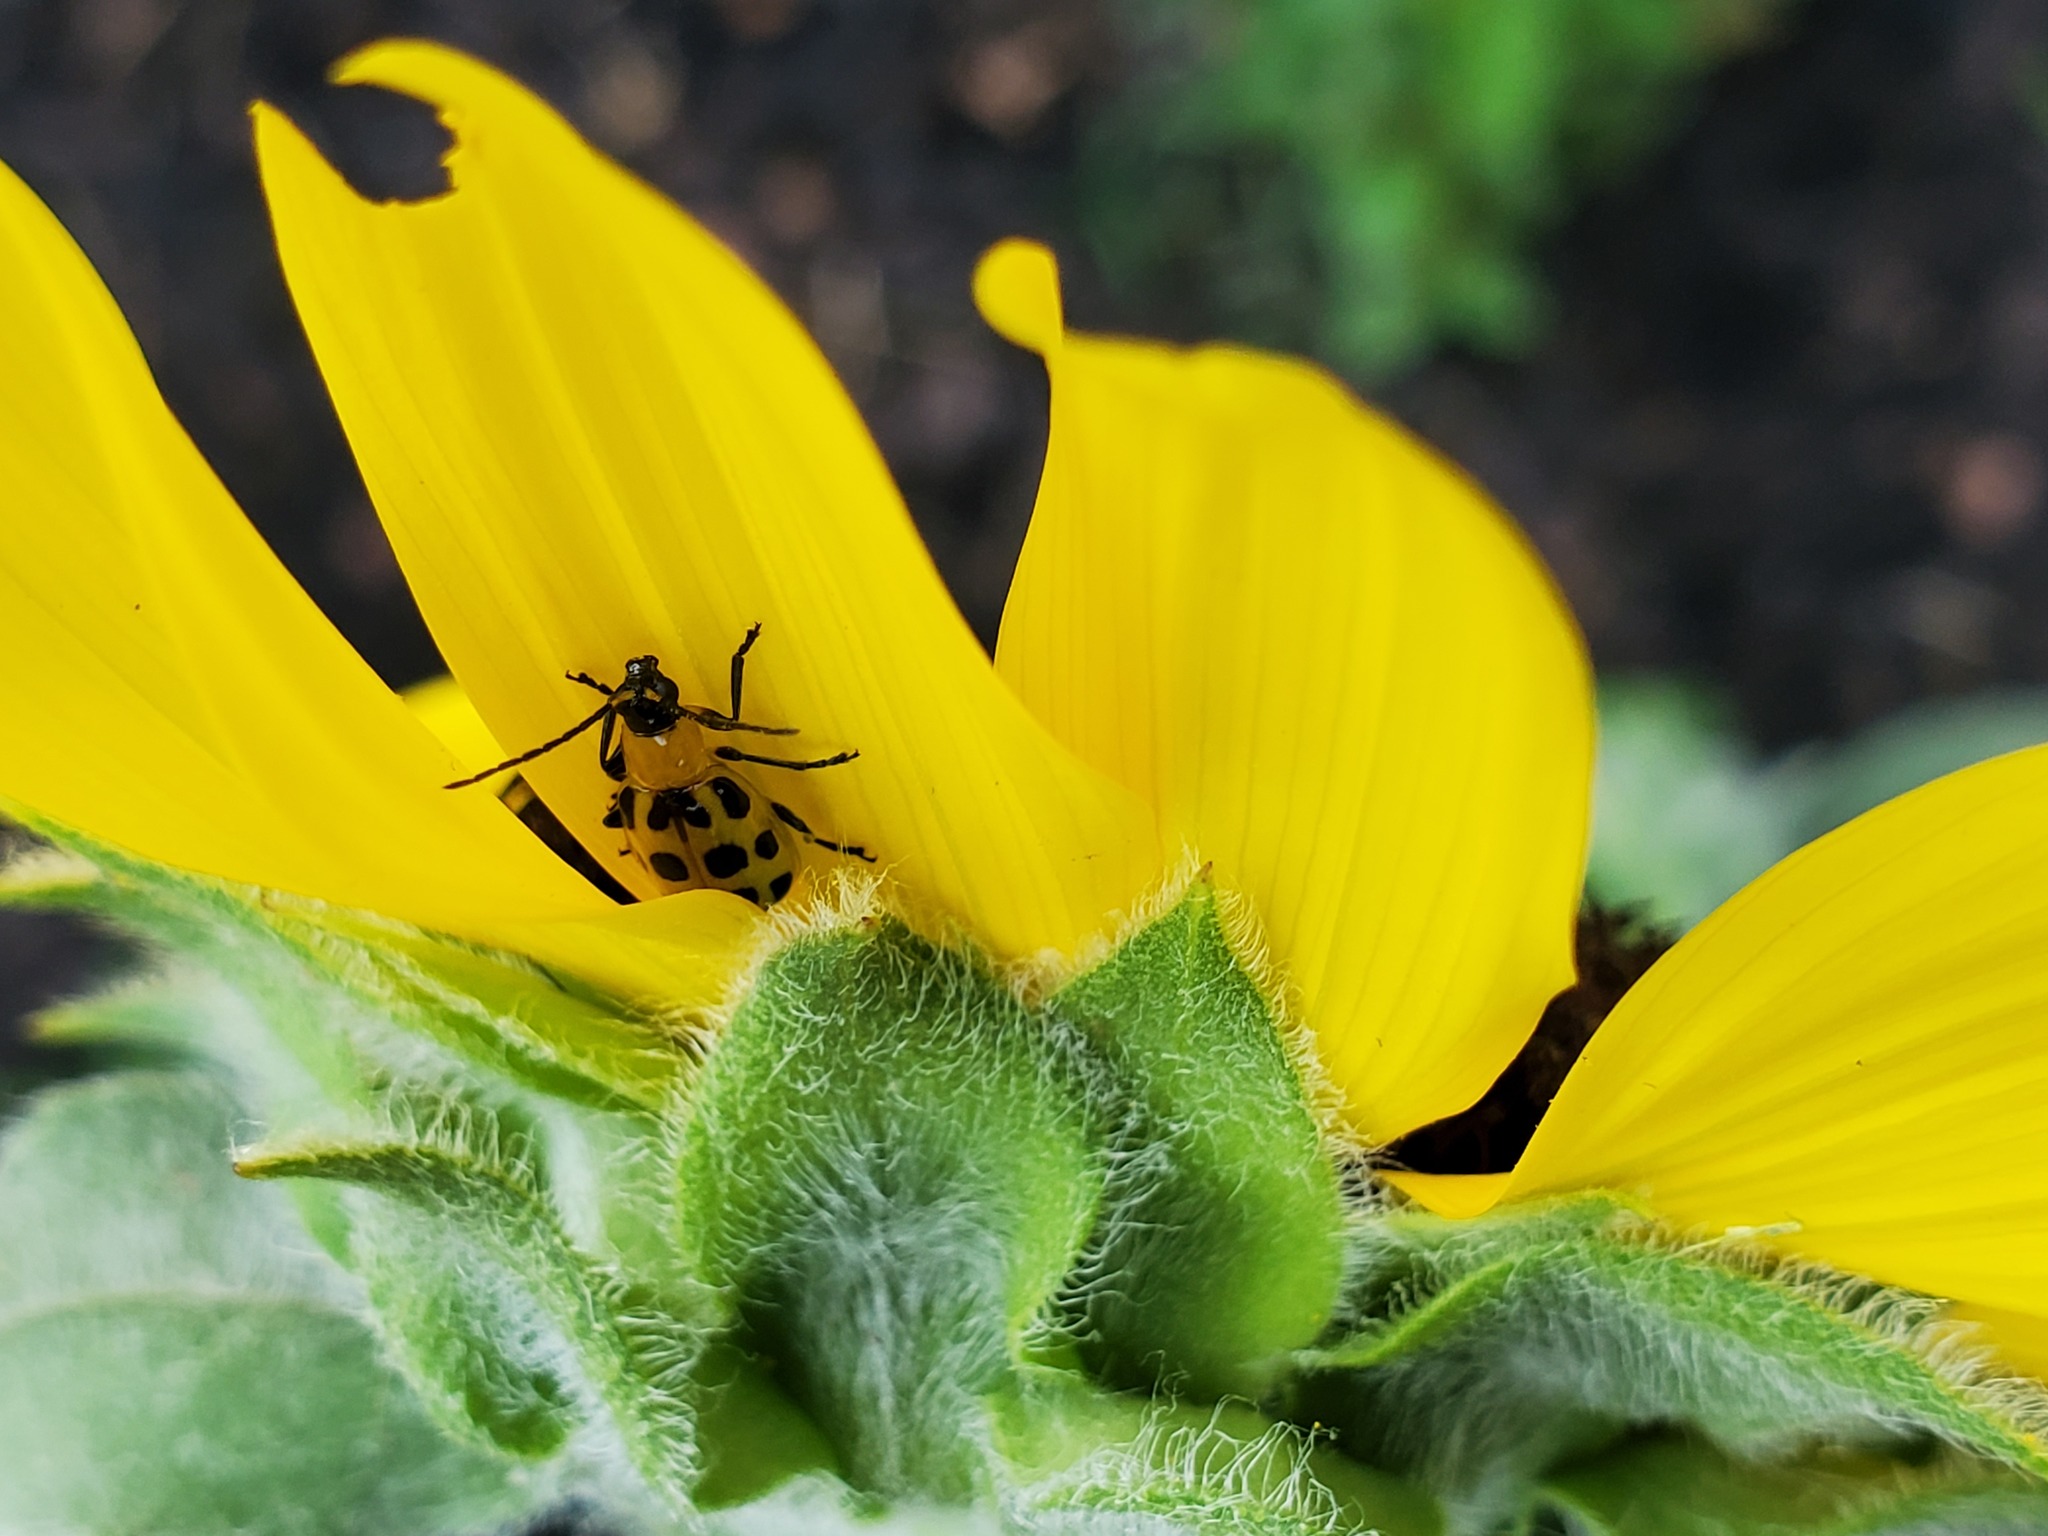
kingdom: Animalia
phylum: Arthropoda
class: Insecta
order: Coleoptera
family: Chrysomelidae
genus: Diabrotica
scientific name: Diabrotica undecimpunctata
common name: Spotted cucumber beetle
